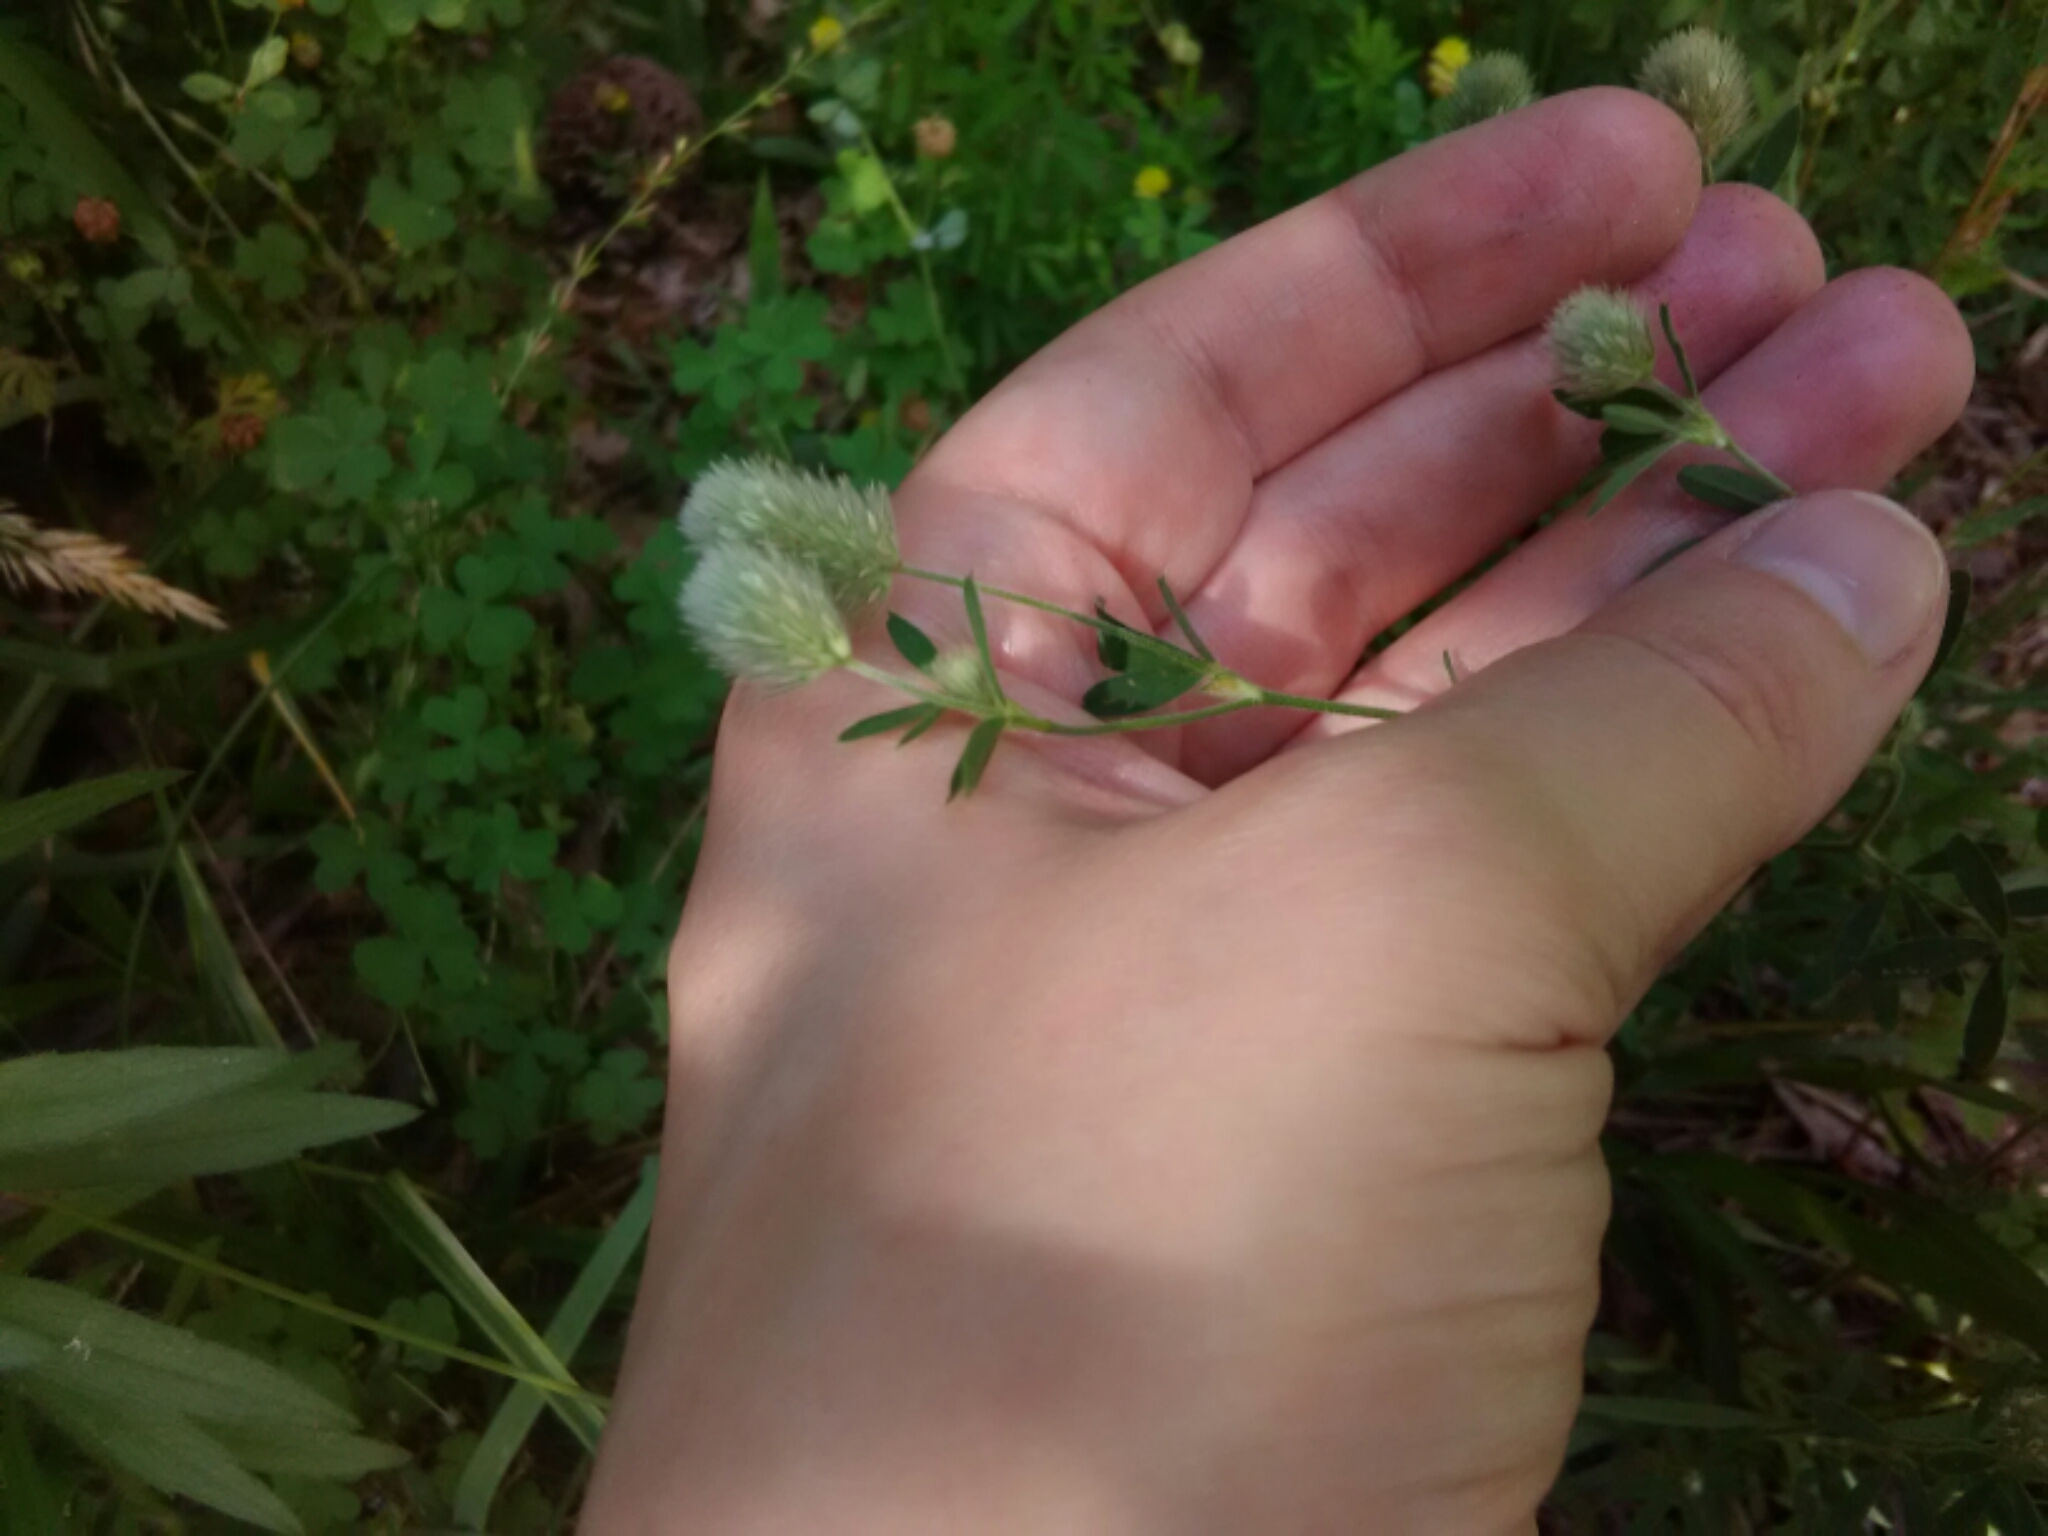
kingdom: Plantae
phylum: Tracheophyta
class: Magnoliopsida
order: Fabales
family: Fabaceae
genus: Trifolium
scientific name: Trifolium arvense
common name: Hare's-foot clover
